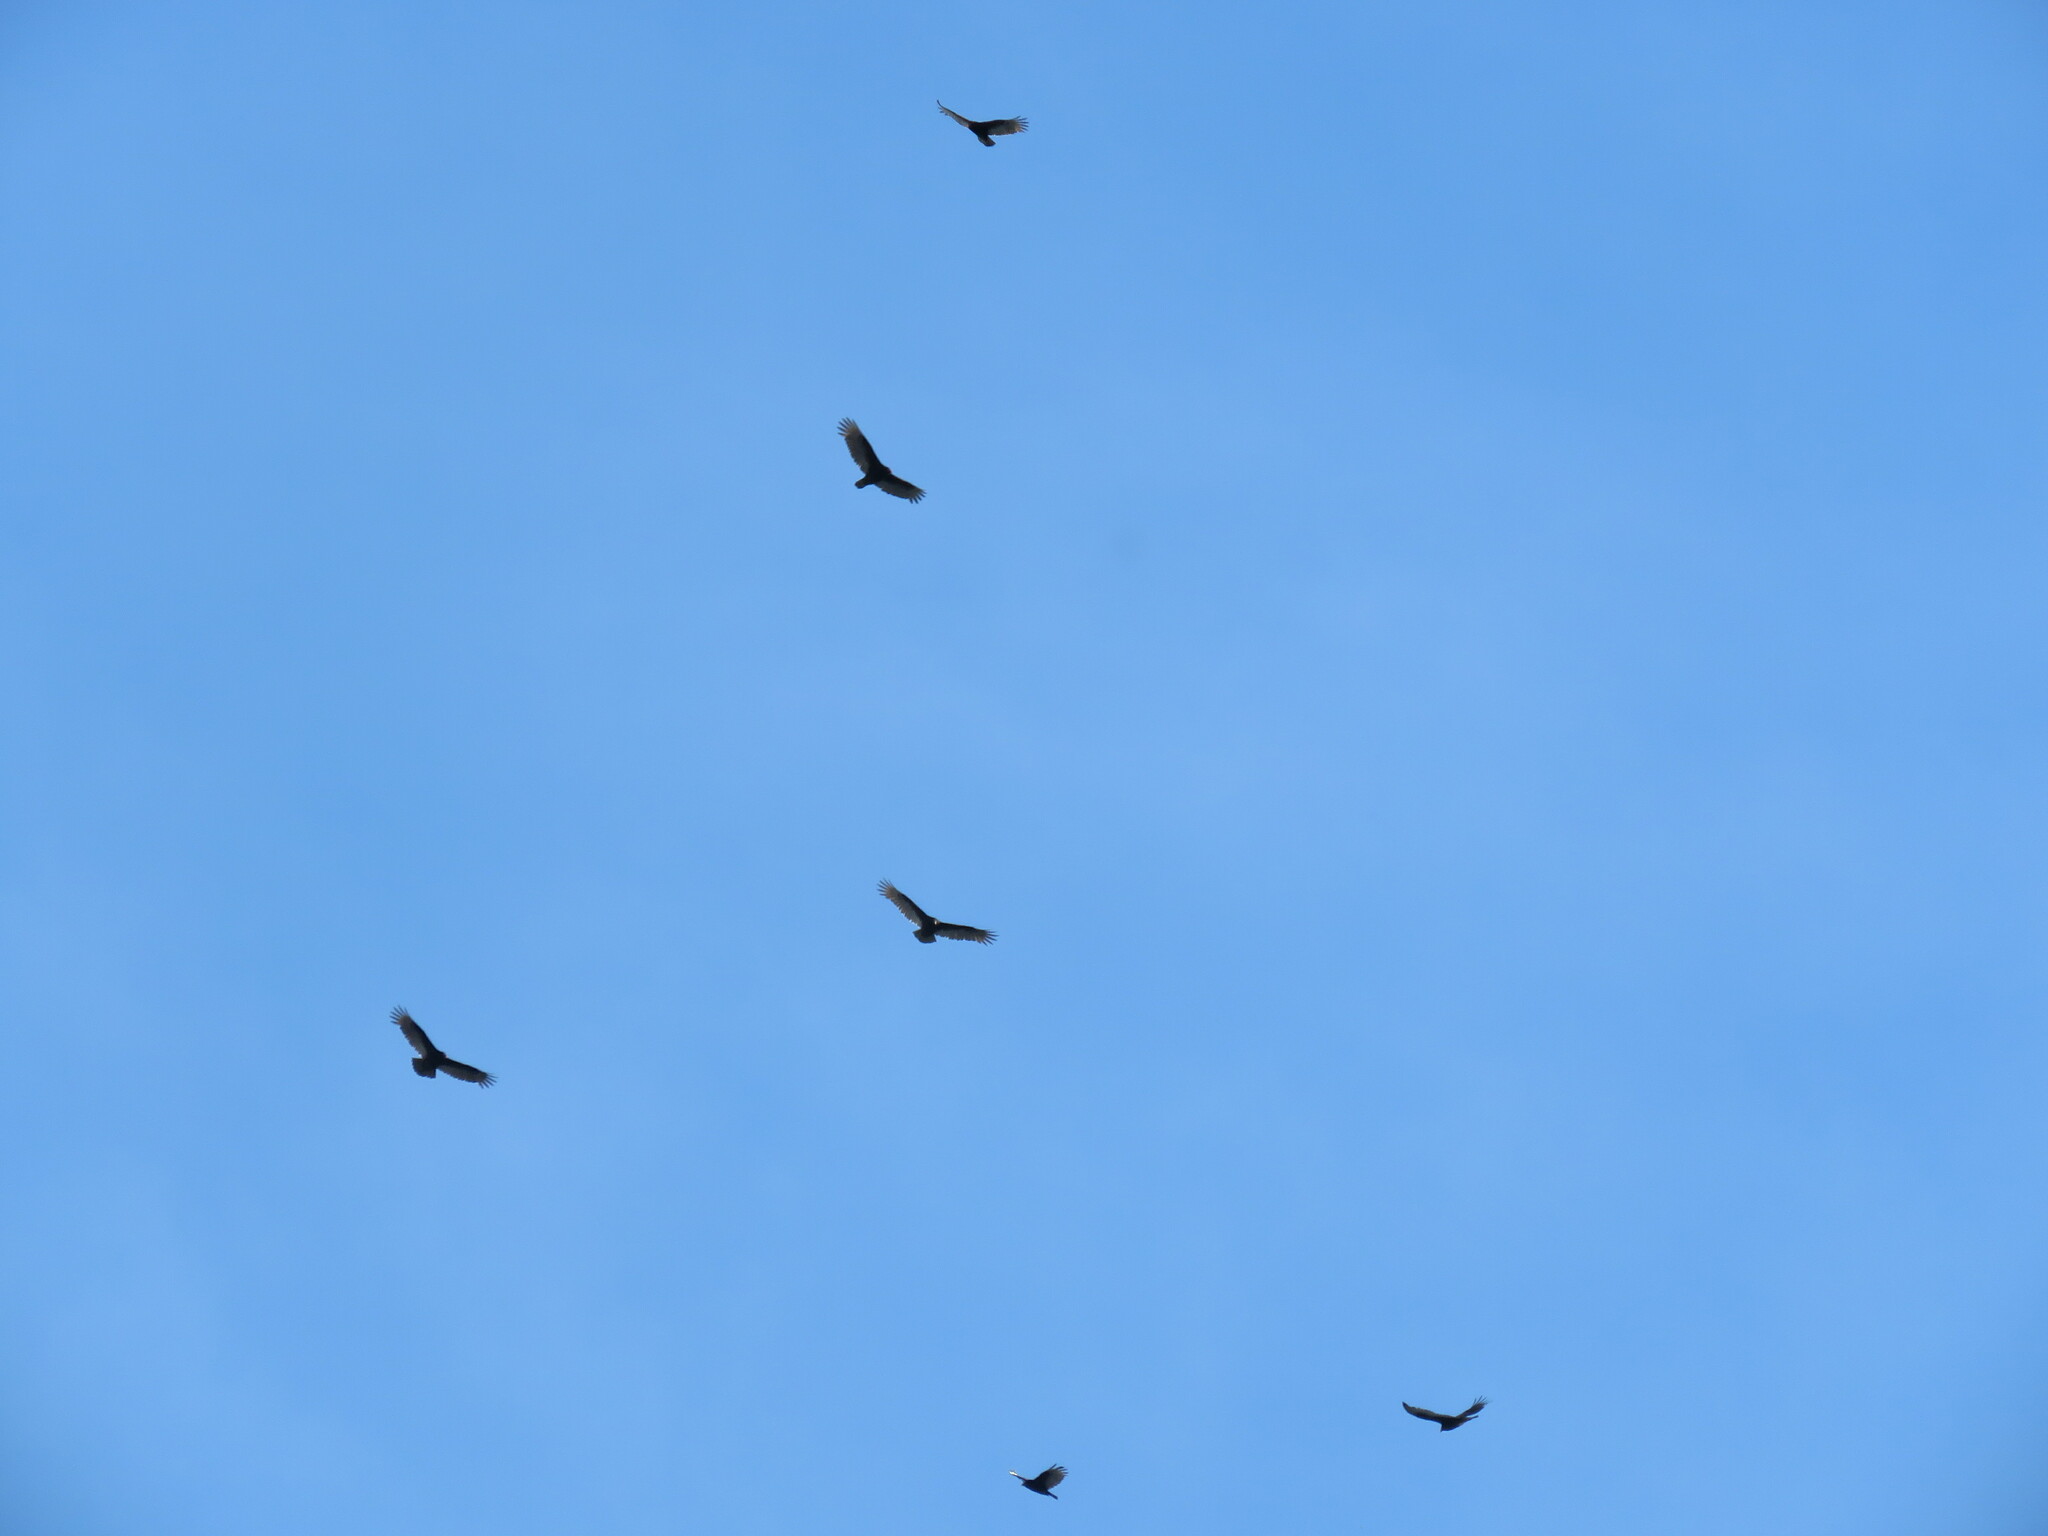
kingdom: Animalia
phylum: Chordata
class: Aves
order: Accipitriformes
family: Cathartidae
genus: Cathartes
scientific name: Cathartes aura
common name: Turkey vulture
